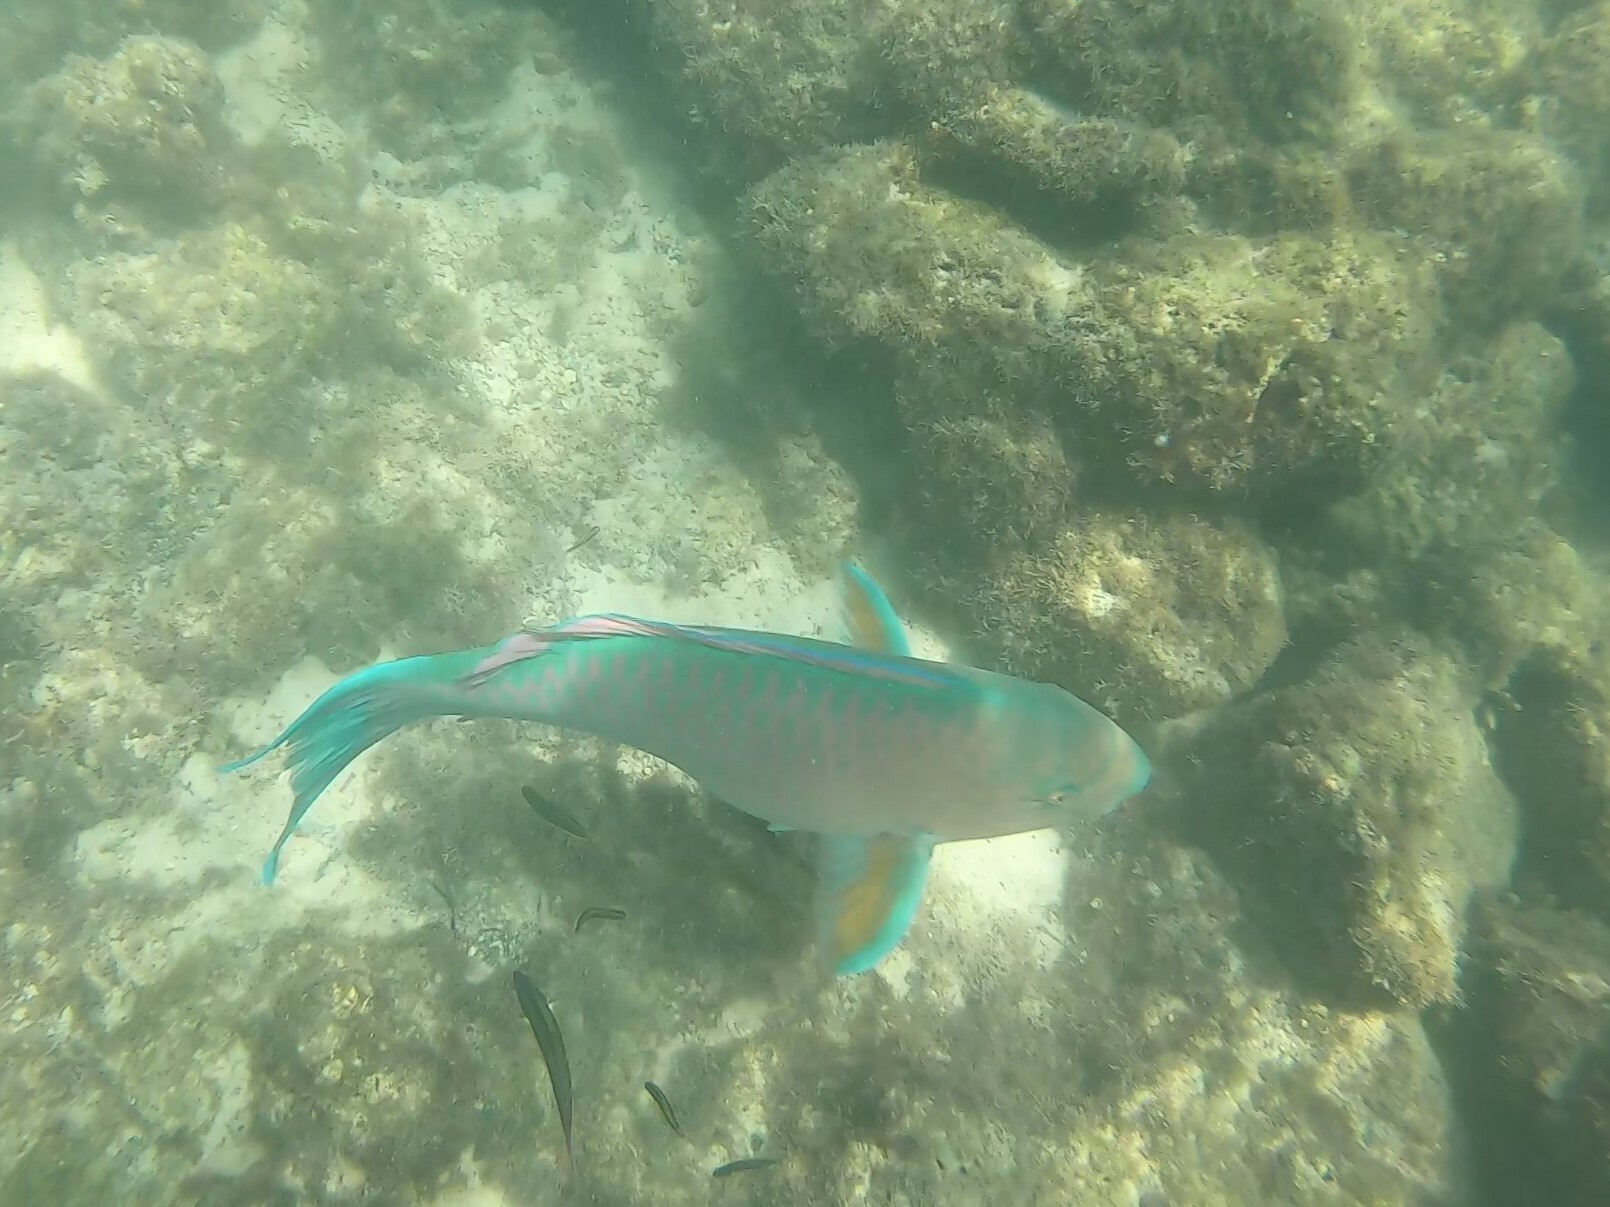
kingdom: Animalia
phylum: Chordata
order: Perciformes
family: Scaridae
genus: Scarus
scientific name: Scarus ghobban
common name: Blue-barred parrotfish
